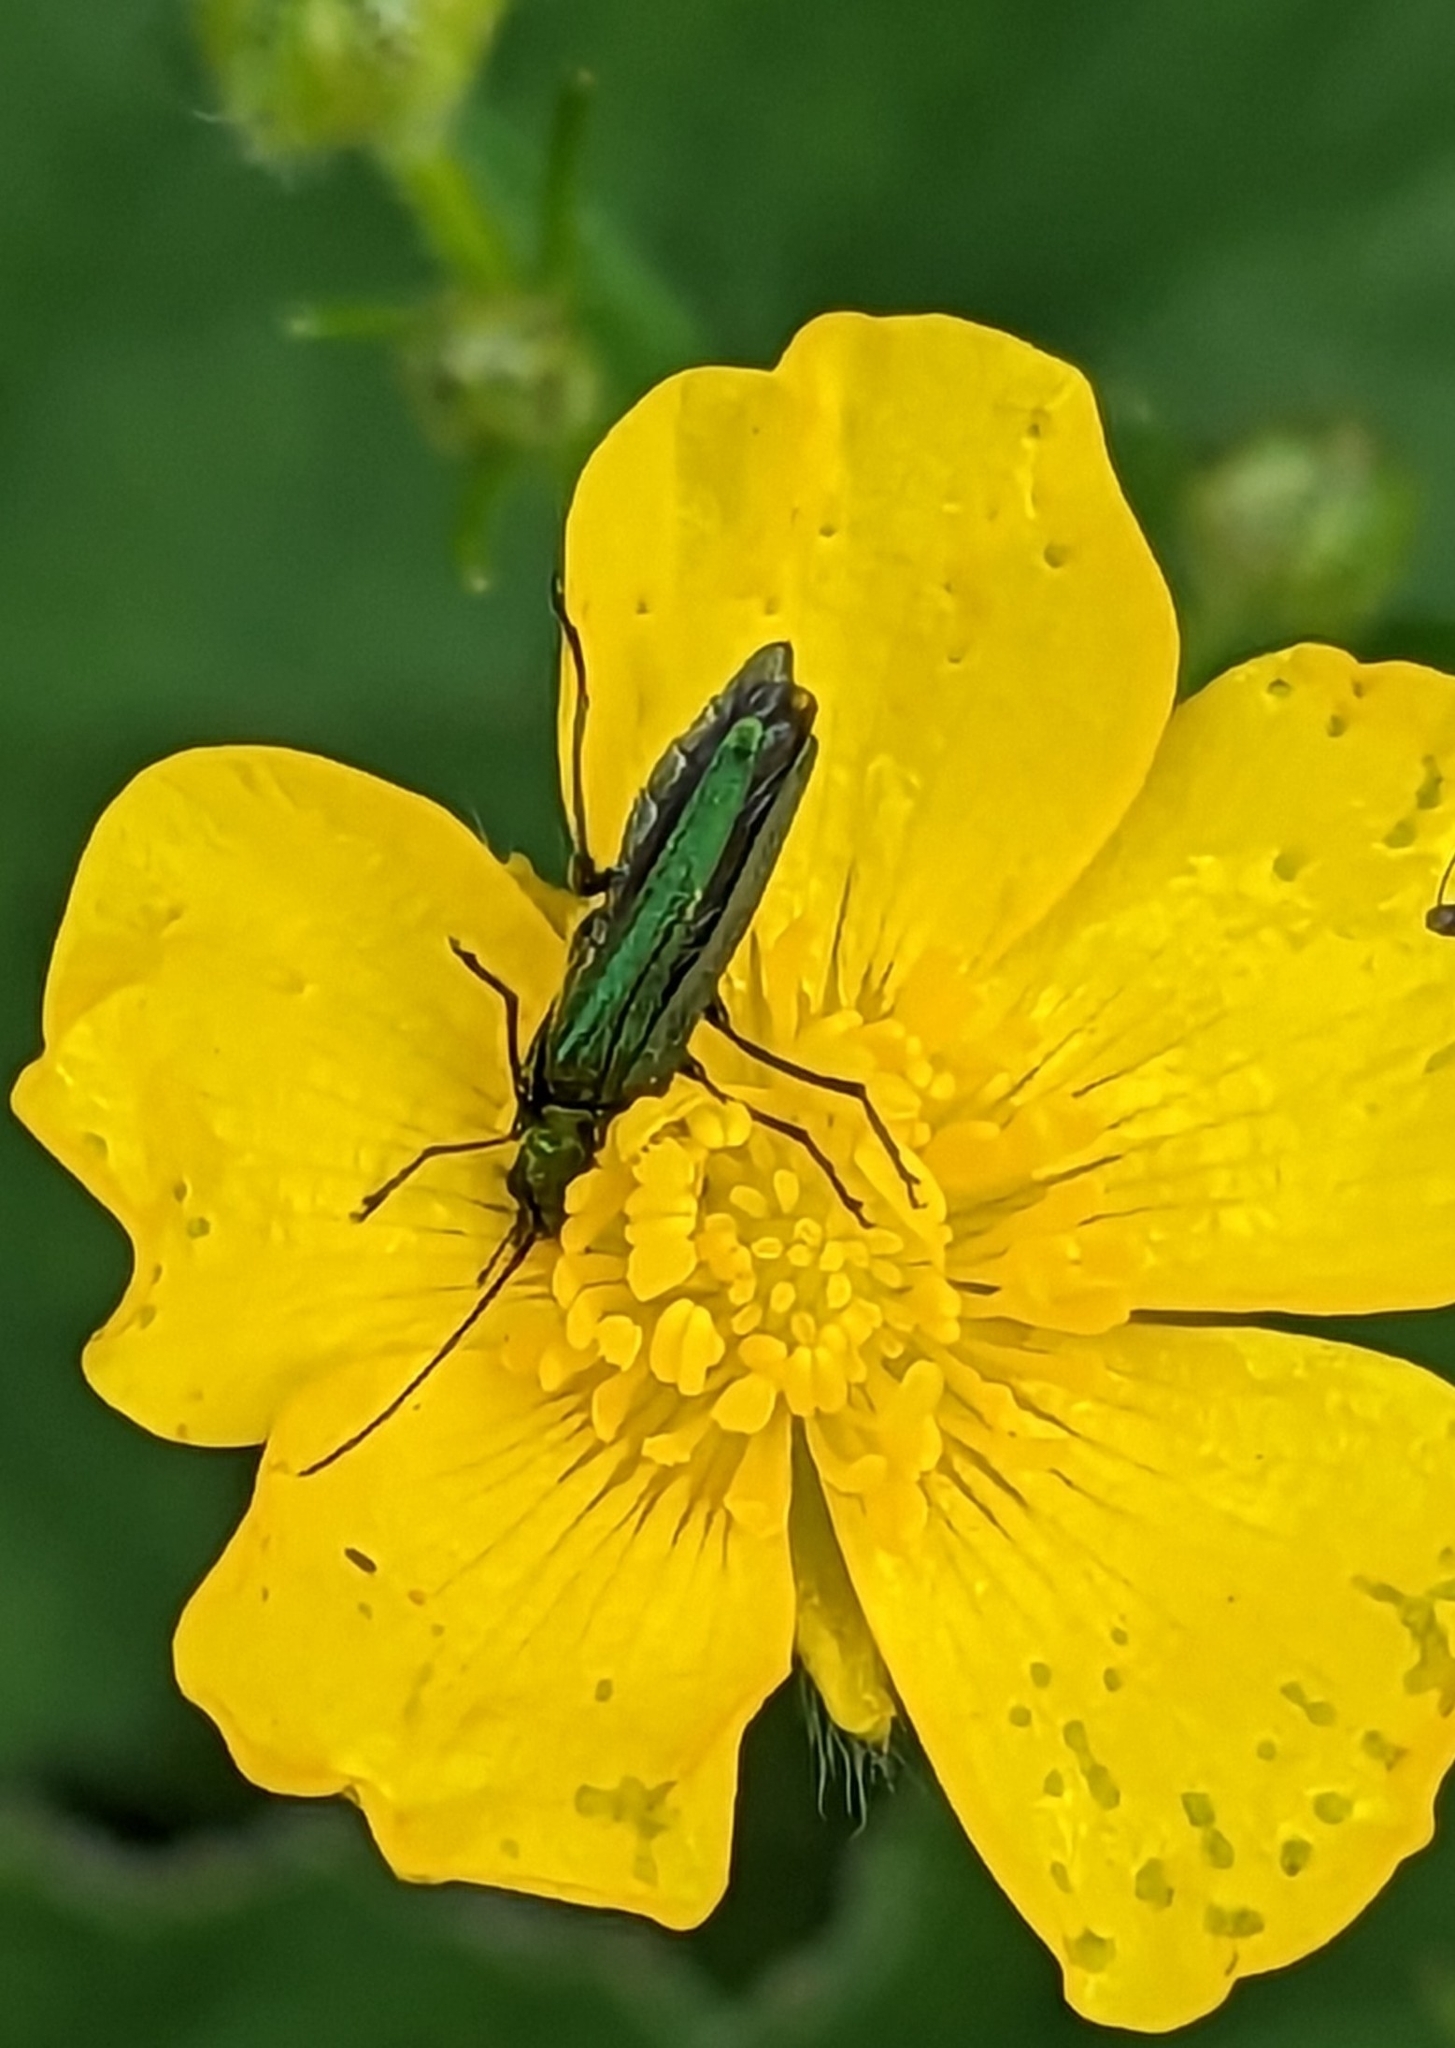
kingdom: Animalia
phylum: Arthropoda
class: Insecta
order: Coleoptera
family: Oedemeridae
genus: Oedemera
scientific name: Oedemera nobilis
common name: Swollen-thighed beetle
